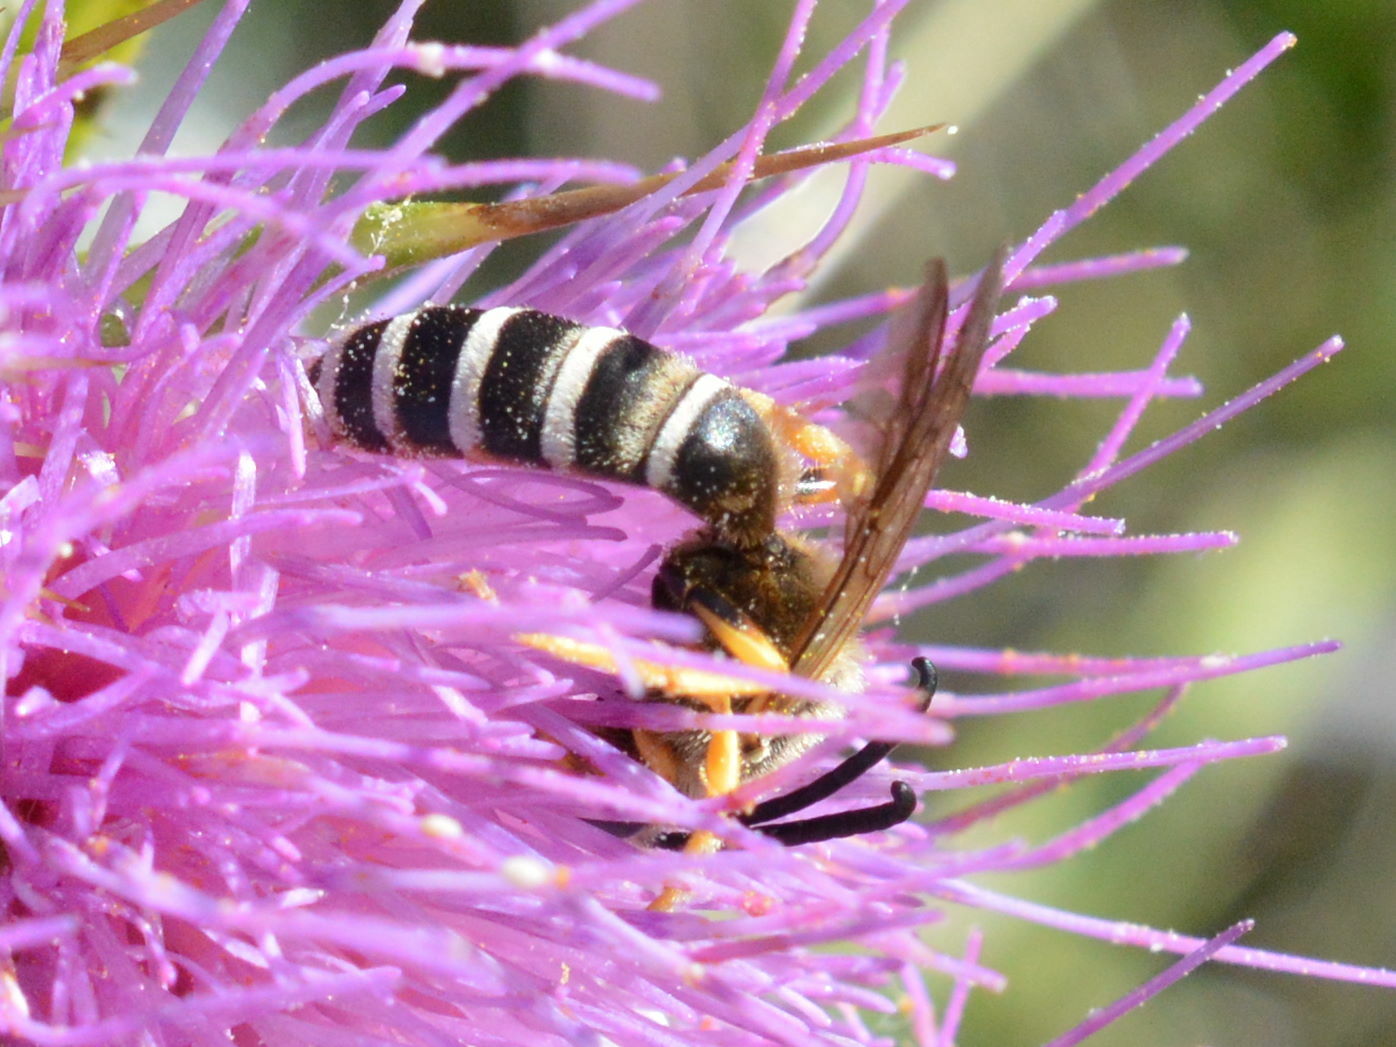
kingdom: Animalia
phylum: Arthropoda
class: Insecta
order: Hymenoptera
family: Halictidae
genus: Halictus
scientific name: Halictus scabiosae
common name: Great banded furrow bee
